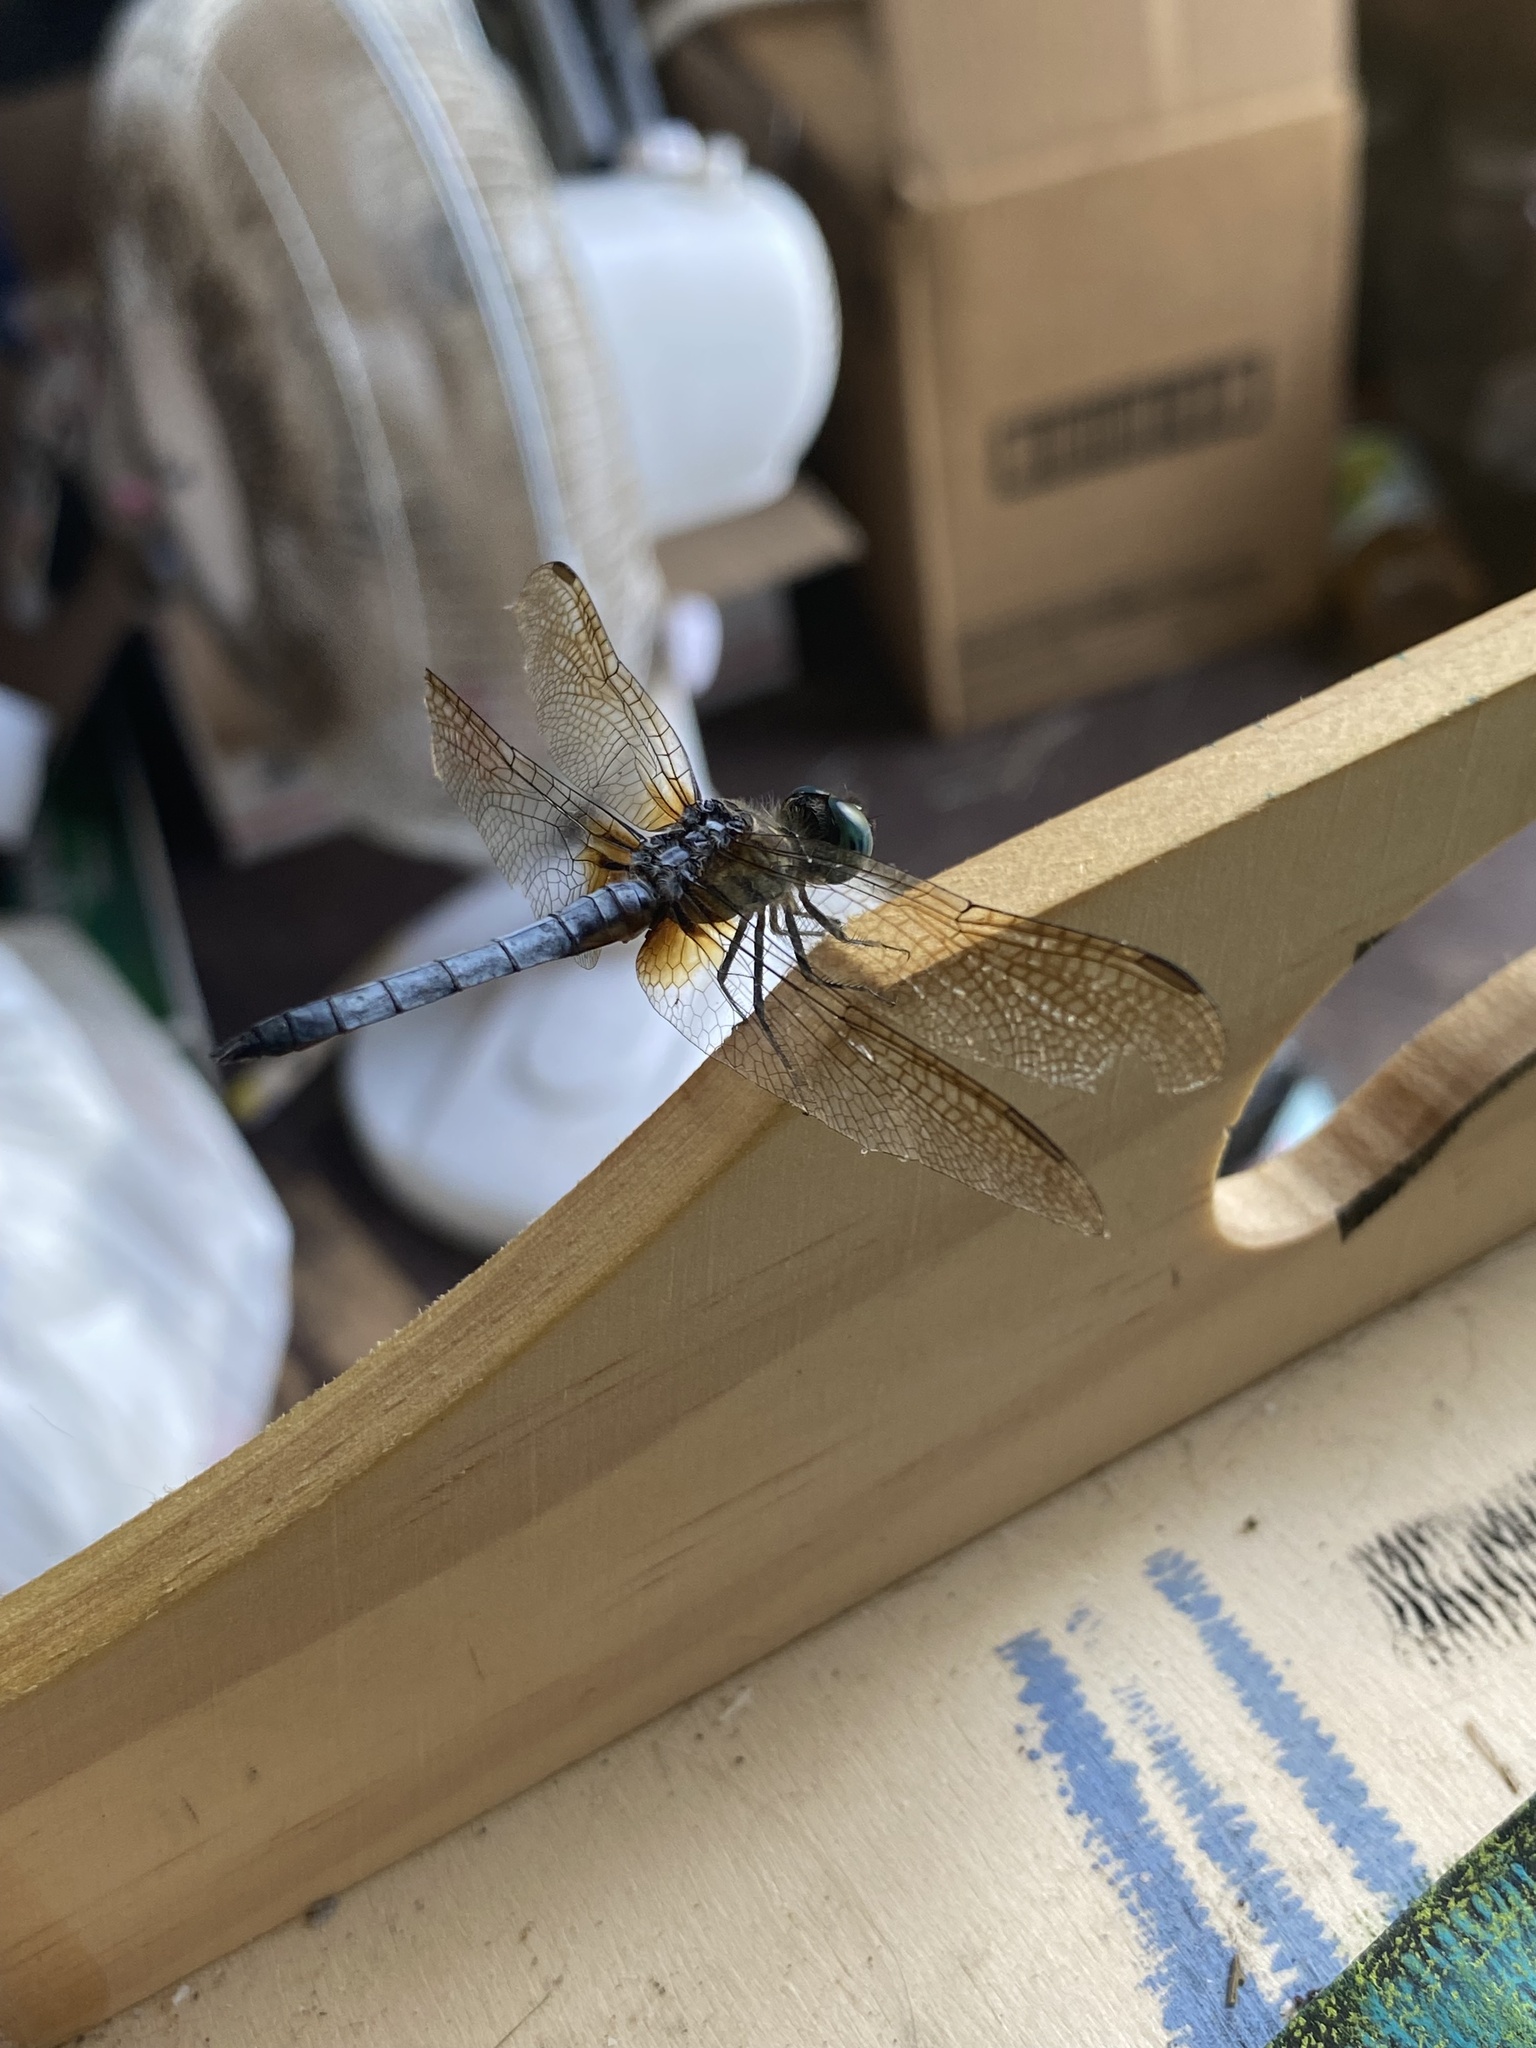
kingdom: Animalia
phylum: Arthropoda
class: Insecta
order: Odonata
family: Libellulidae
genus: Pachydiplax
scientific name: Pachydiplax longipennis
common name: Blue dasher
